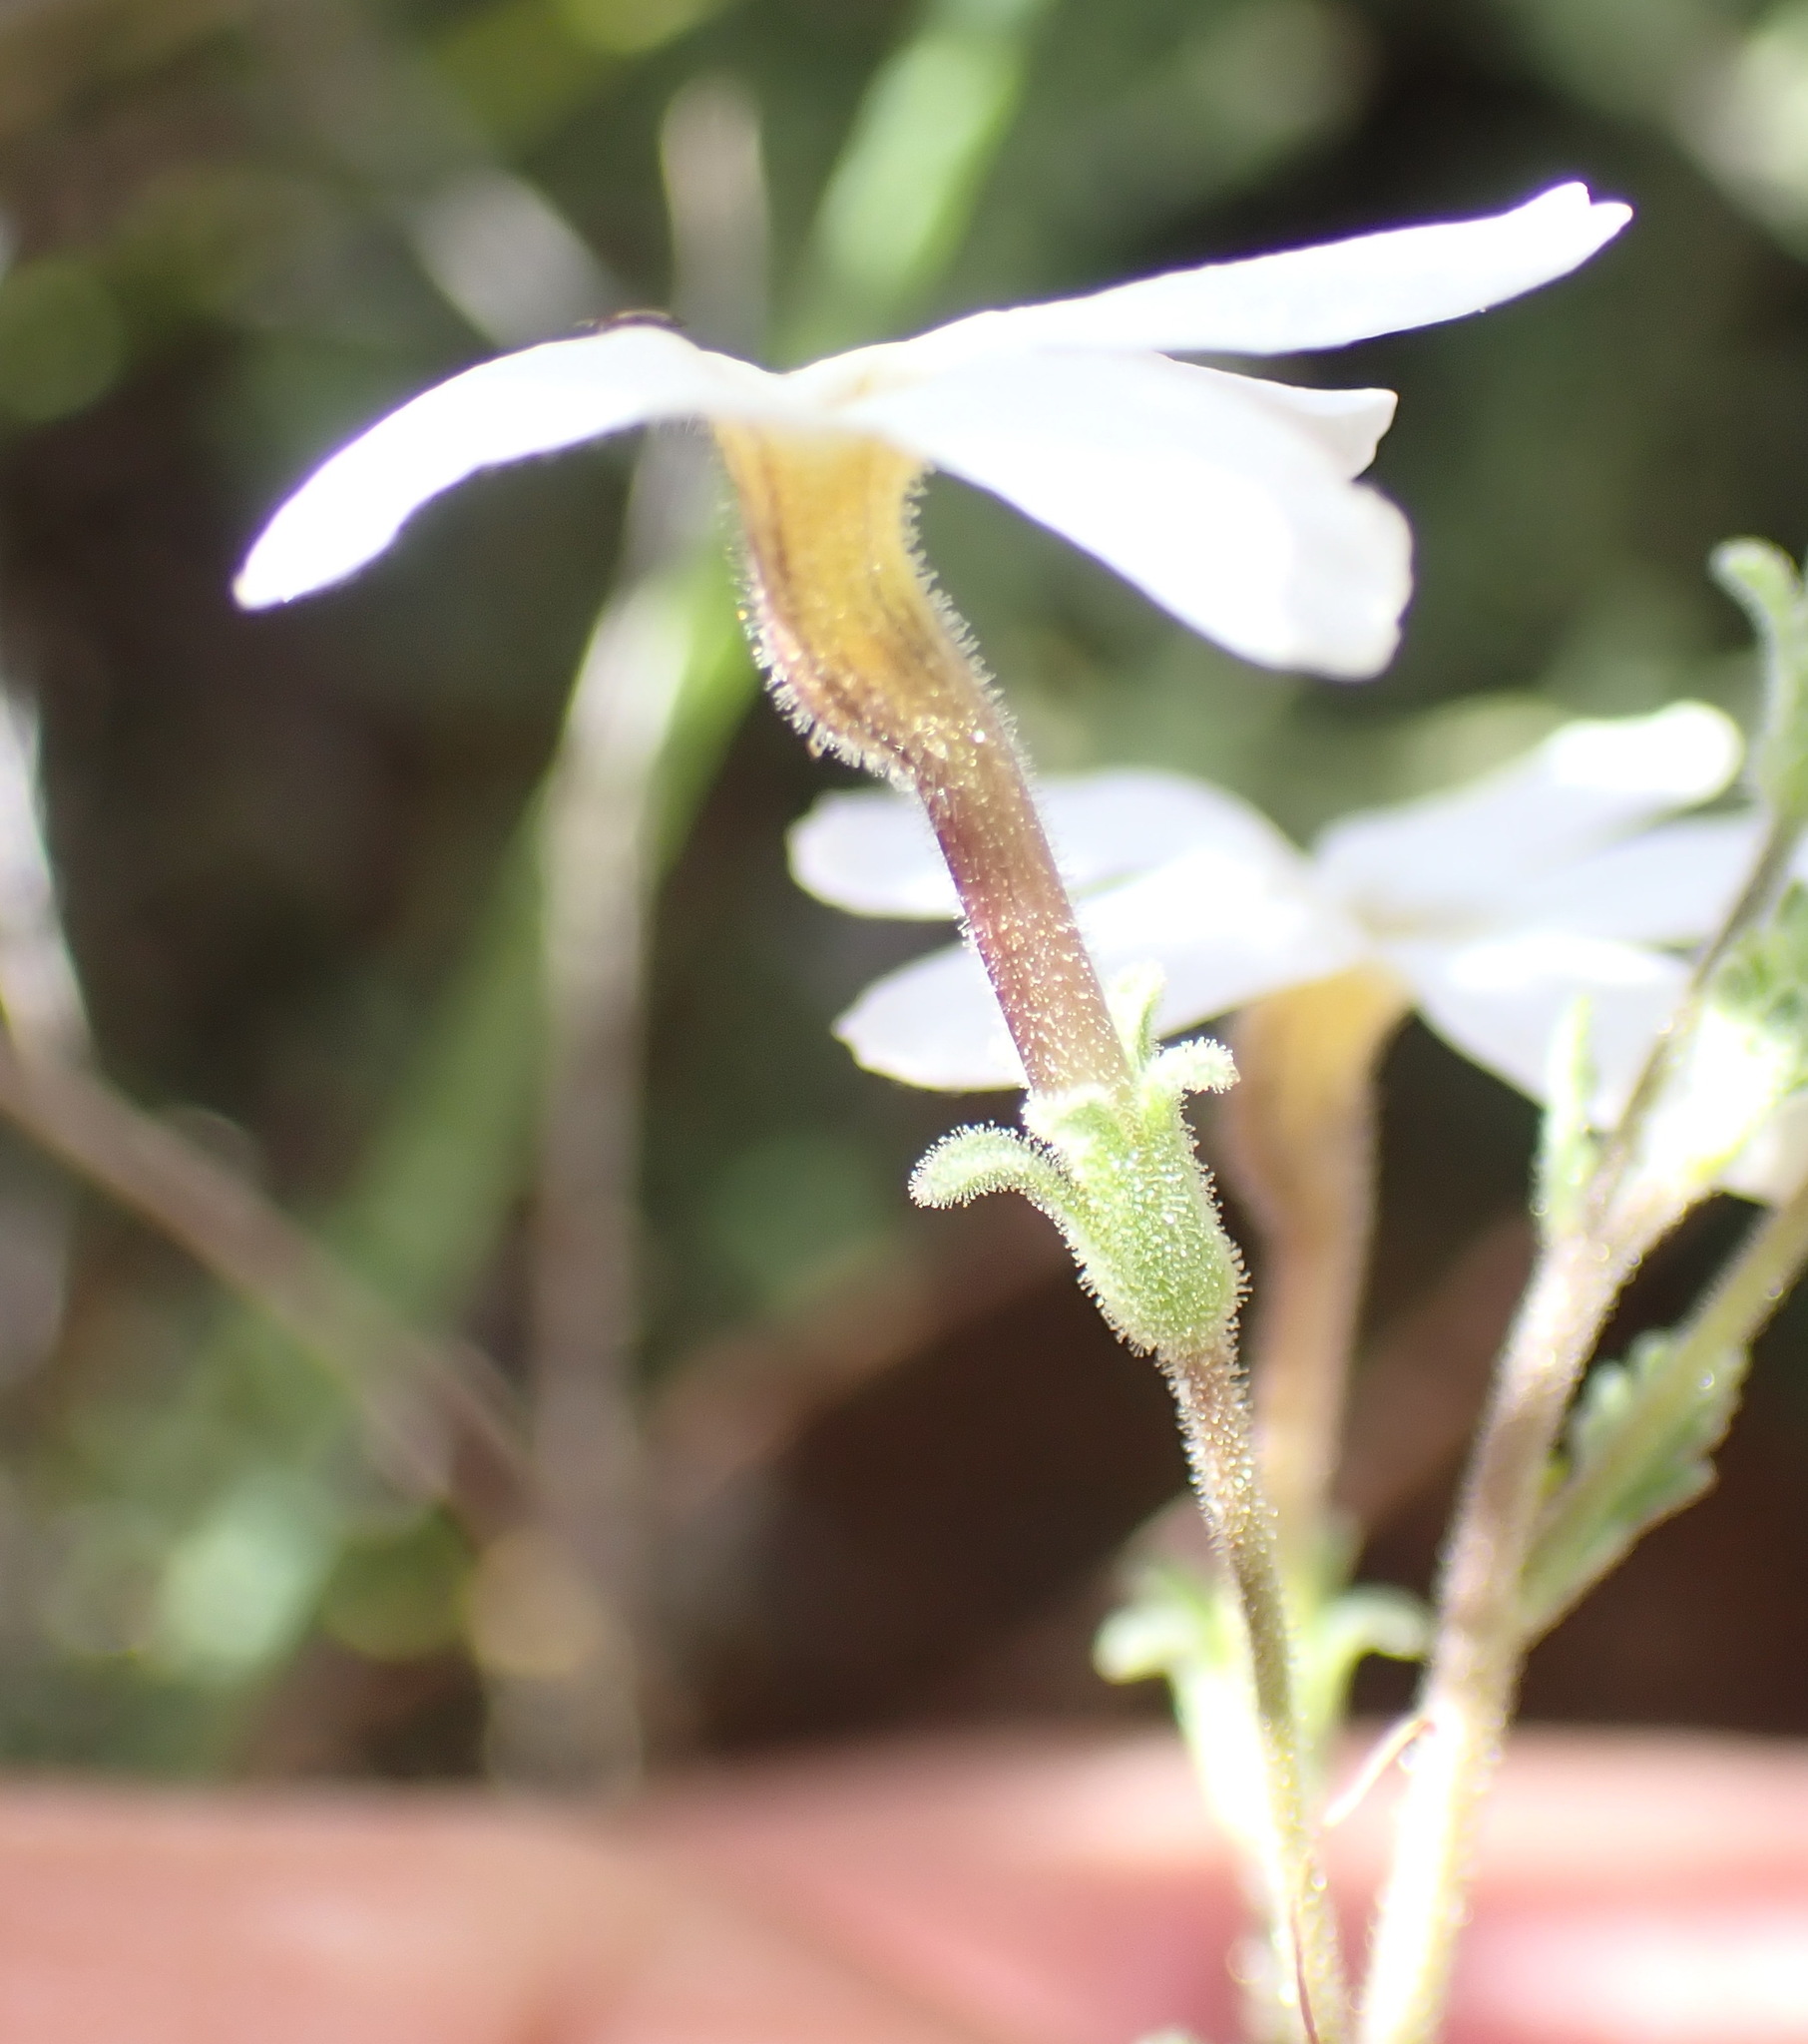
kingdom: Plantae
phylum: Tracheophyta
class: Magnoliopsida
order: Lamiales
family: Scrophulariaceae
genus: Jamesbrittenia
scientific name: Jamesbrittenia tysonii
